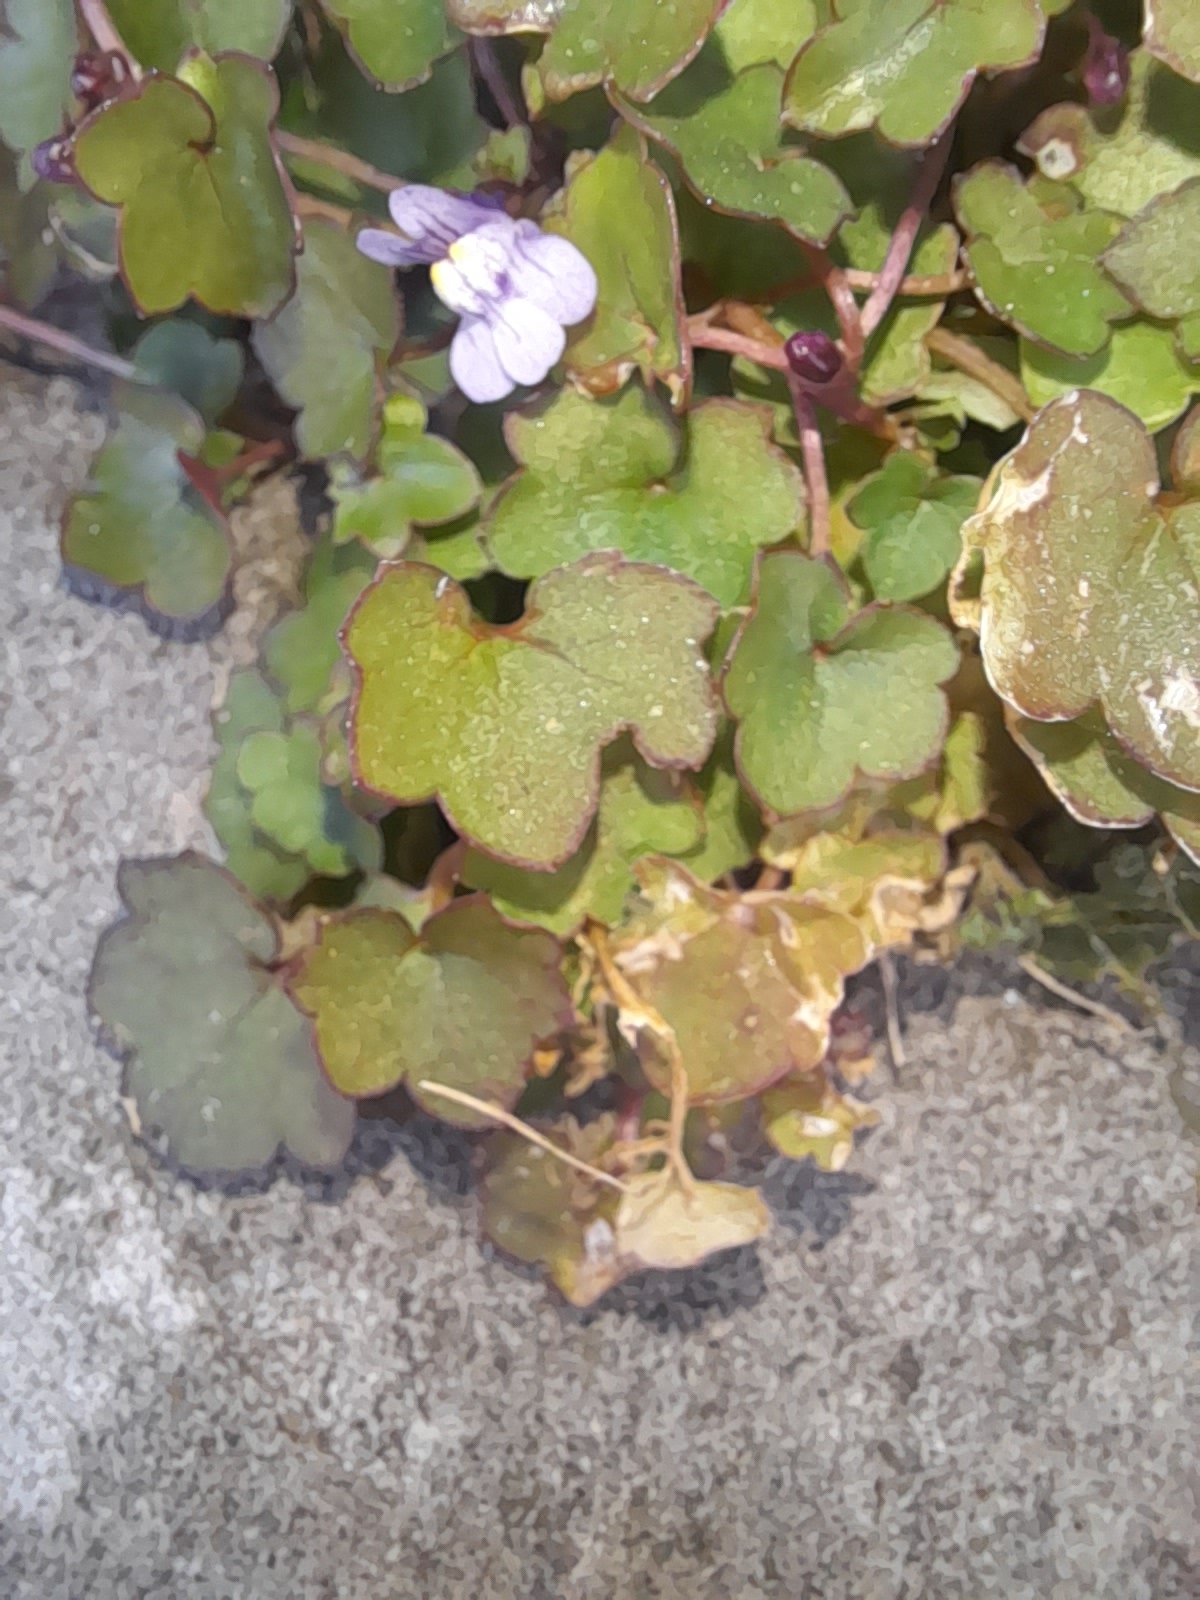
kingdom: Plantae
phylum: Tracheophyta
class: Magnoliopsida
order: Lamiales
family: Plantaginaceae
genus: Cymbalaria
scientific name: Cymbalaria muralis
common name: Ivy-leaved toadflax
